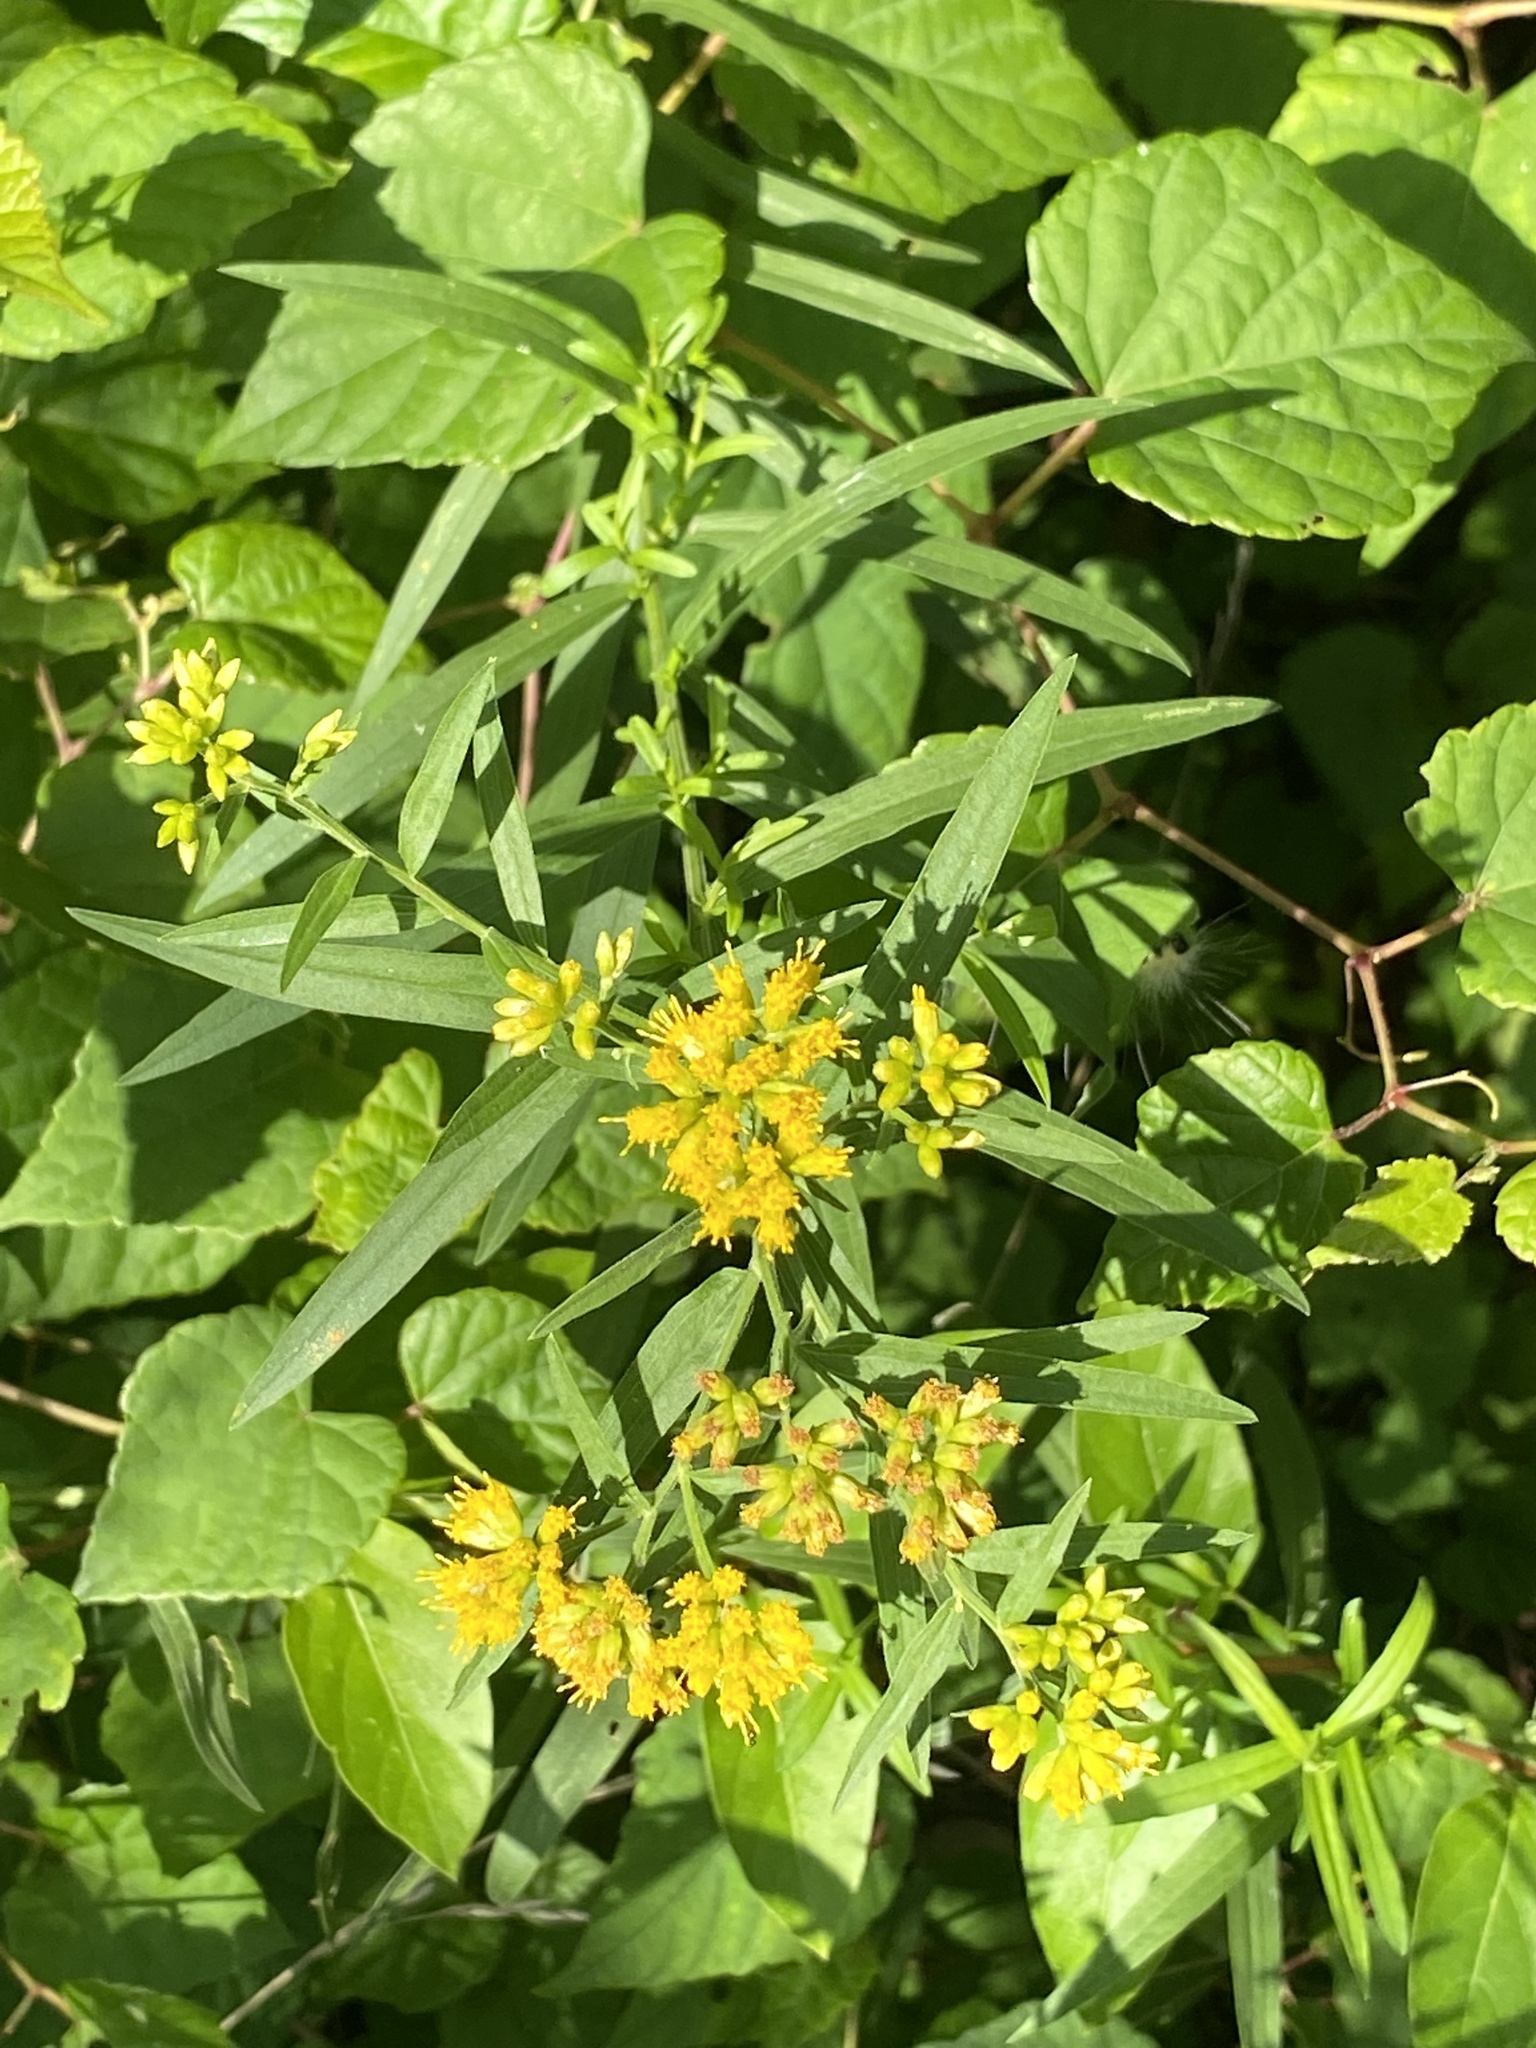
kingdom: Plantae
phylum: Tracheophyta
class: Magnoliopsida
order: Asterales
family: Asteraceae
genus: Euthamia
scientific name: Euthamia graminifolia
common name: Common goldentop
